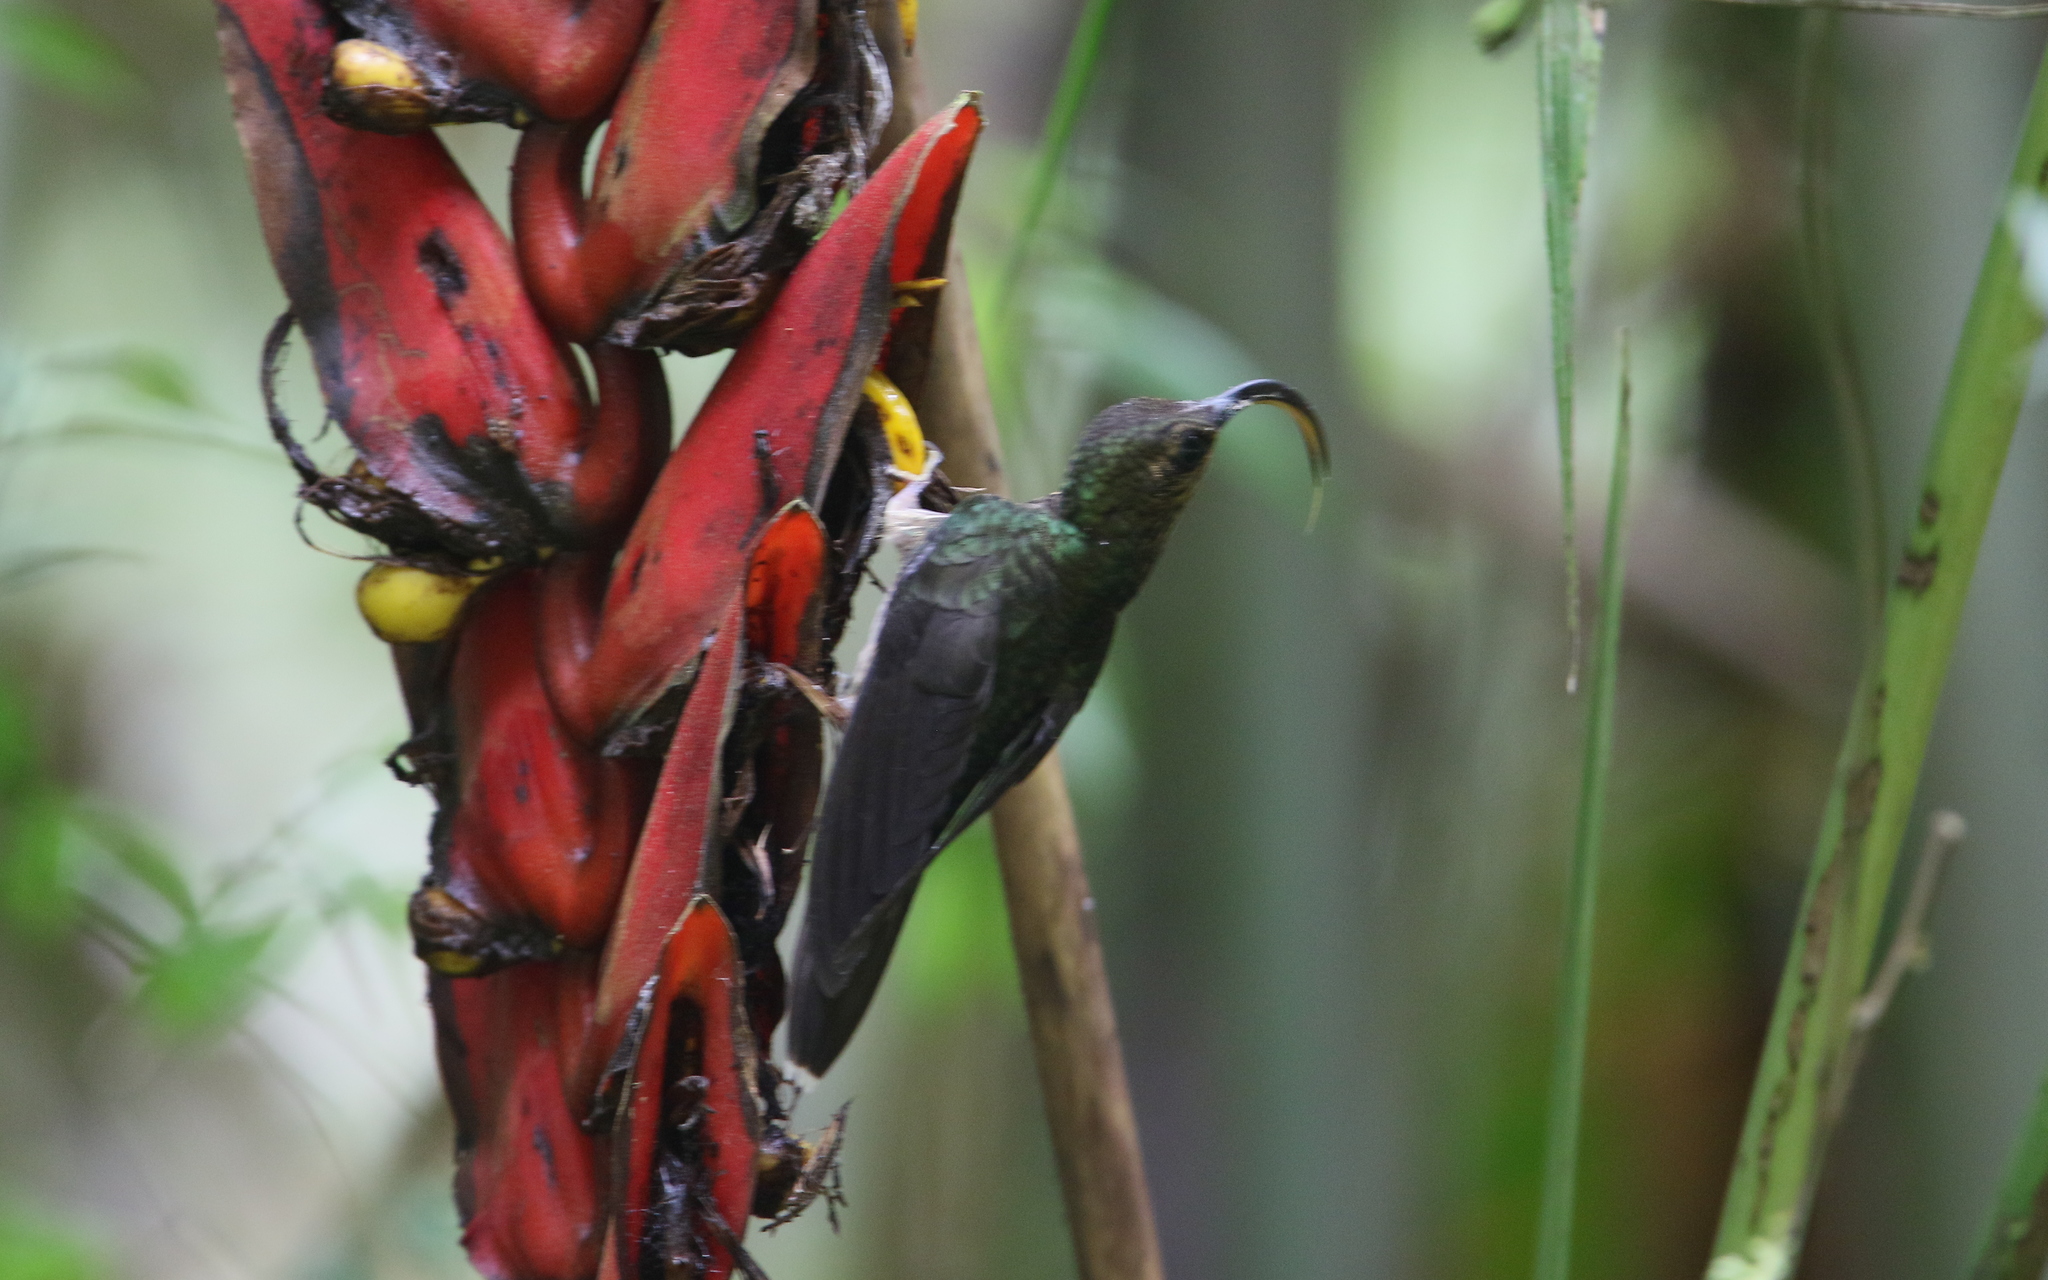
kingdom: Animalia
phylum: Chordata
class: Aves
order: Apodiformes
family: Trochilidae
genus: Eutoxeres
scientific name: Eutoxeres aquila
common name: White-tipped sicklebill
